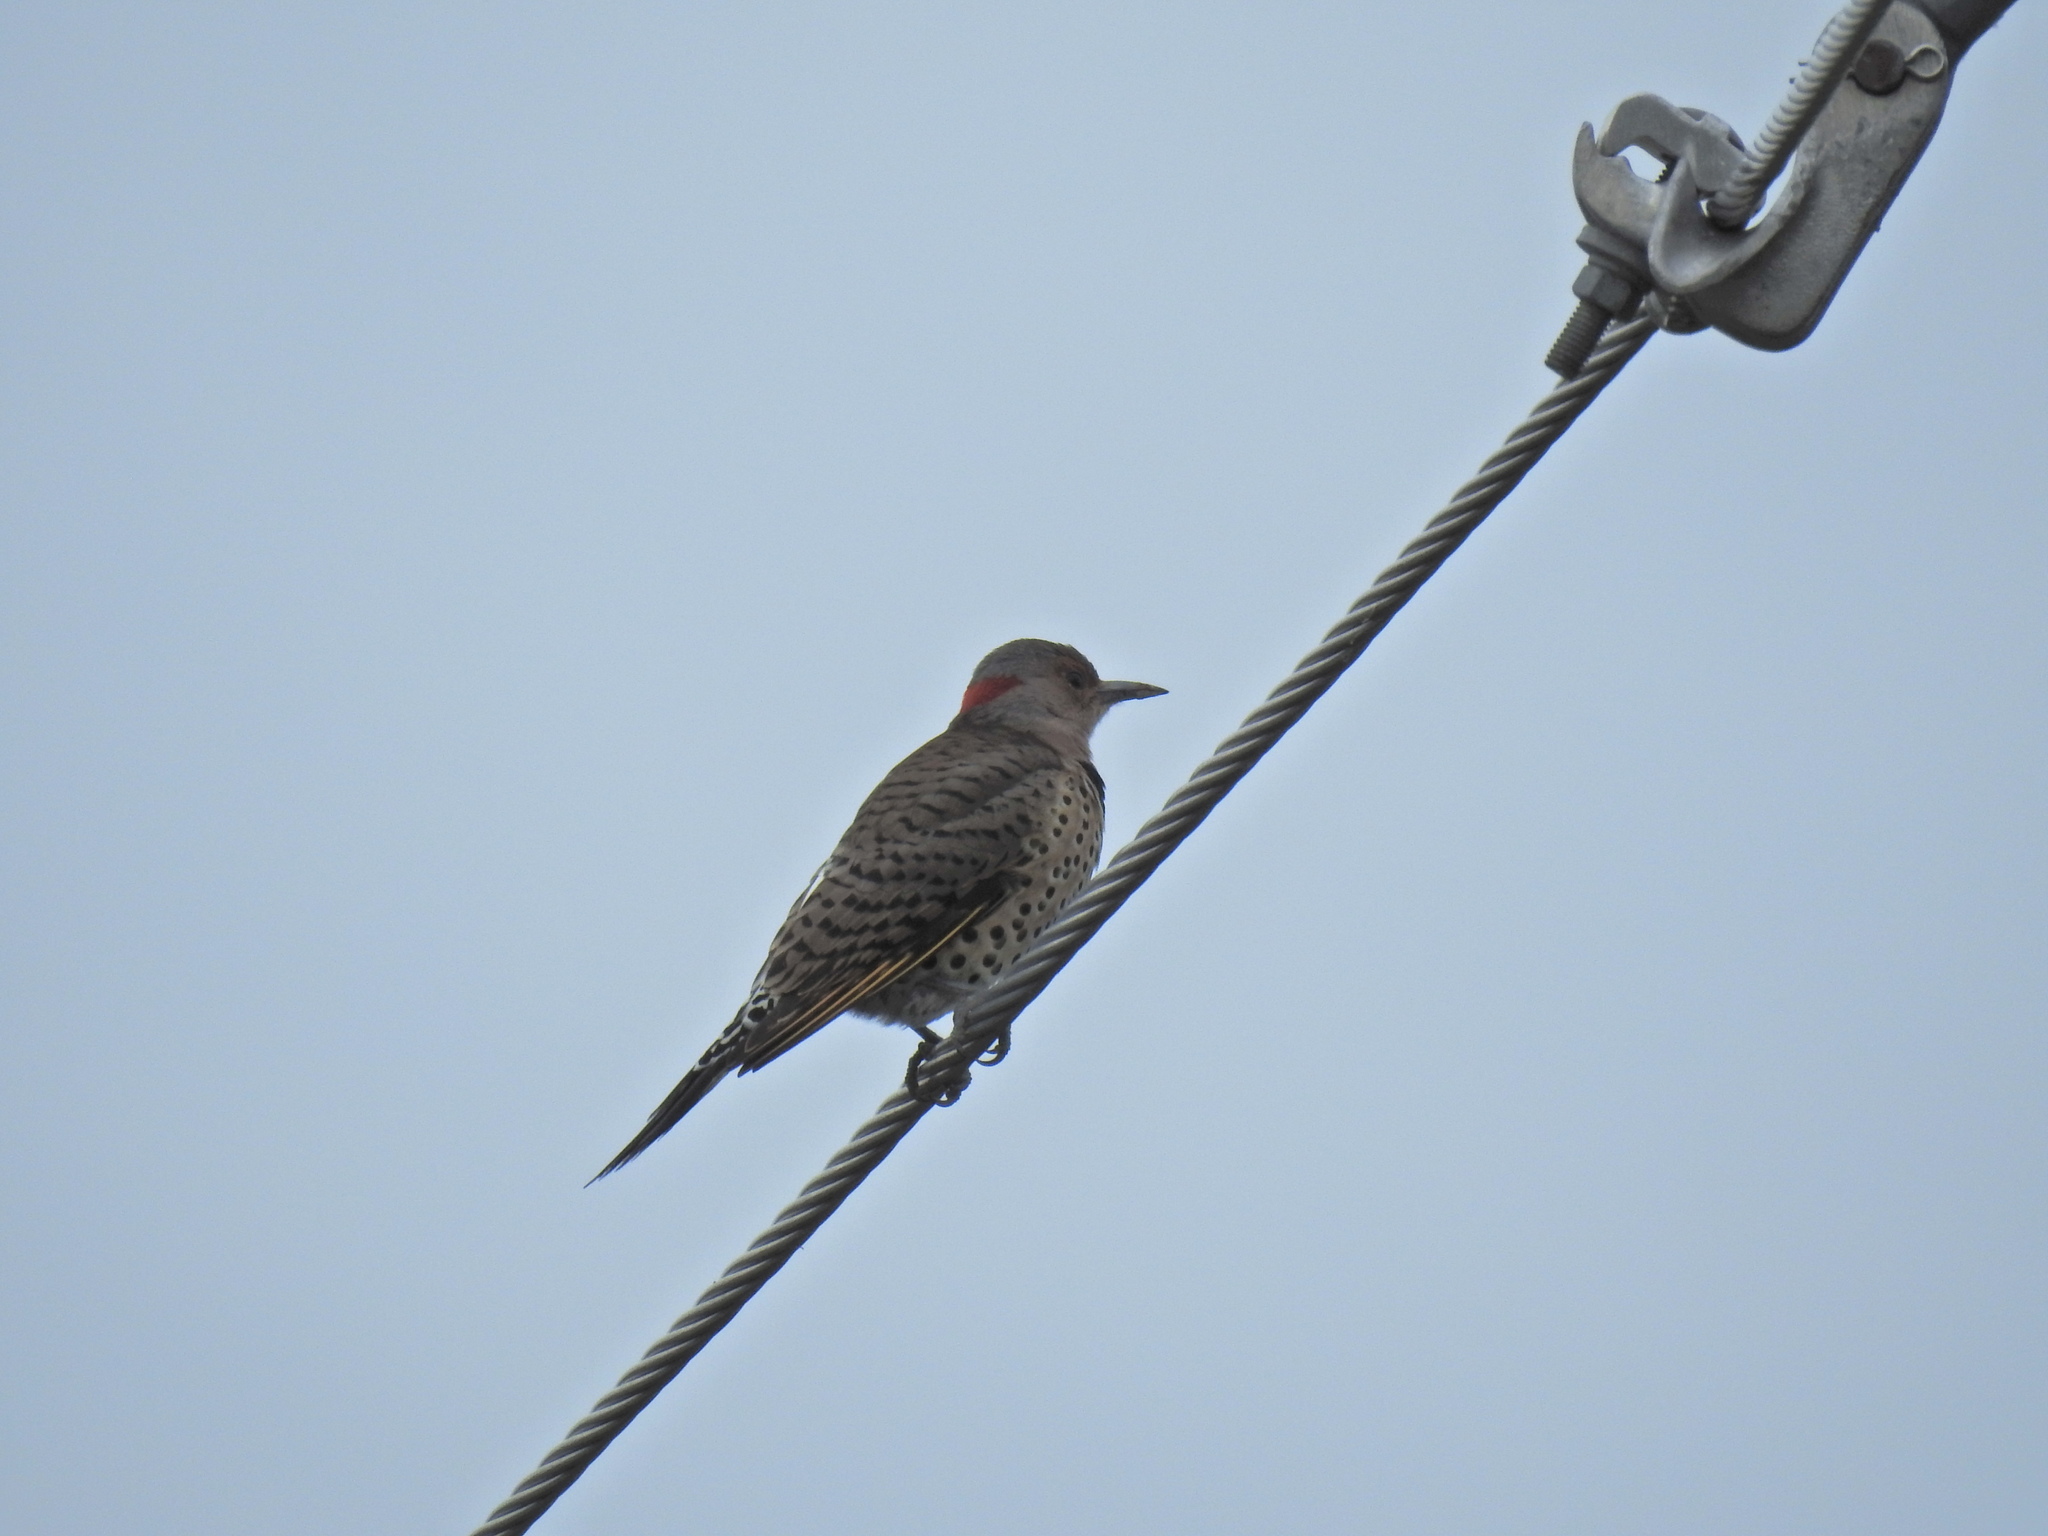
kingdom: Animalia
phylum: Chordata
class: Aves
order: Piciformes
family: Picidae
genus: Colaptes
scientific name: Colaptes auratus
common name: Northern flicker
